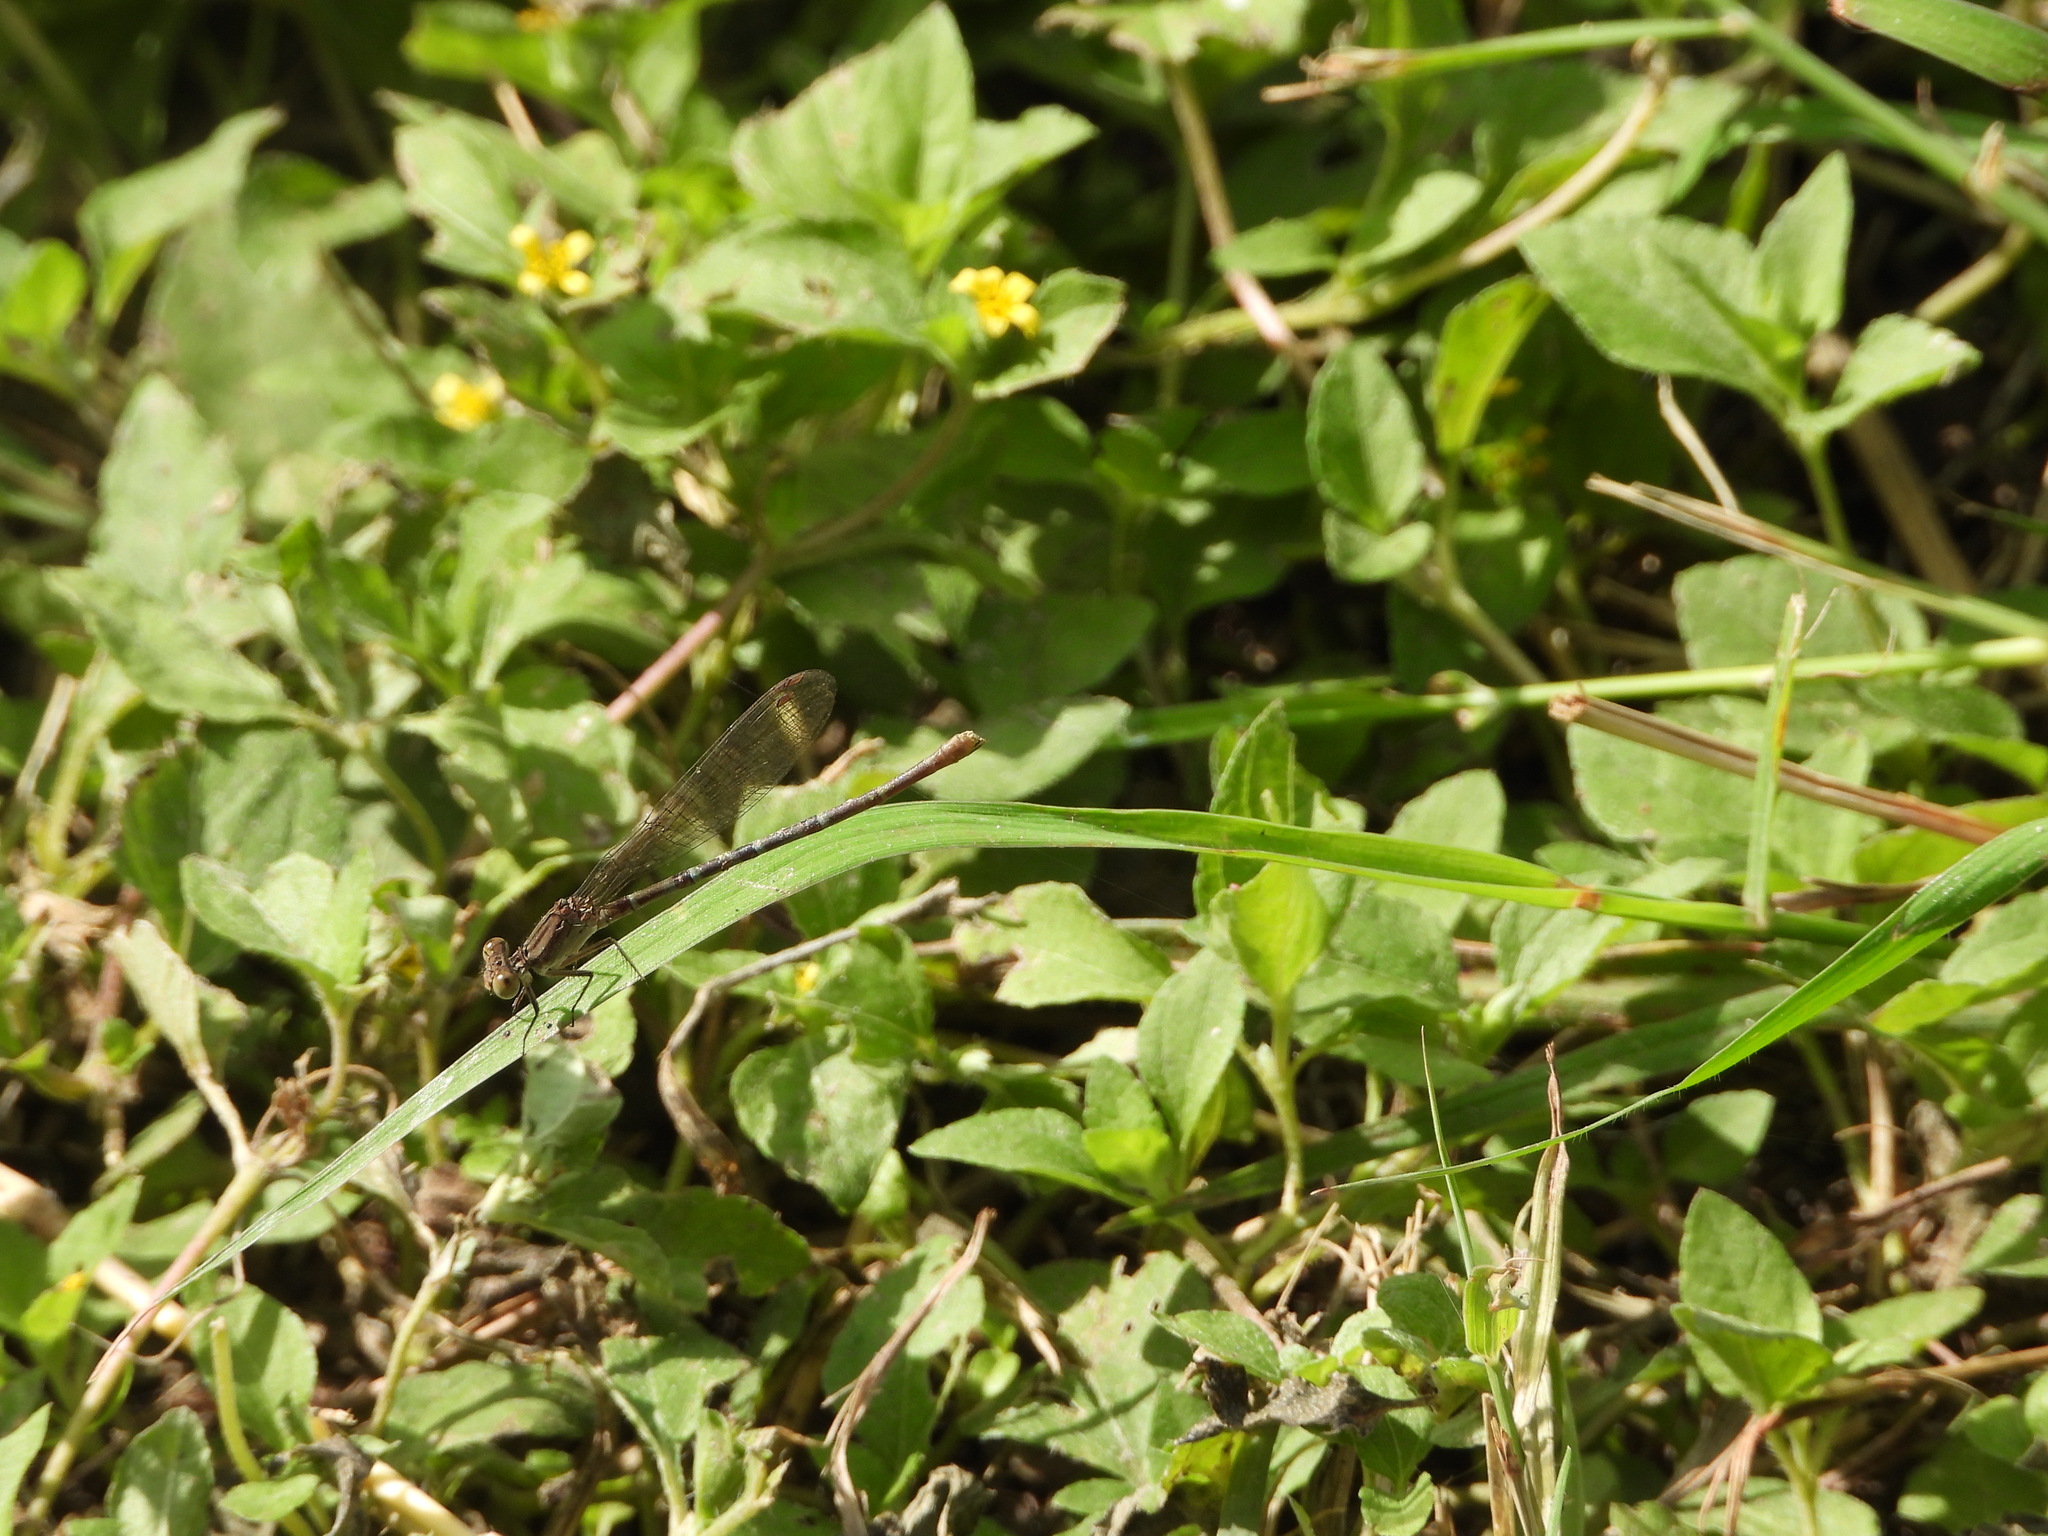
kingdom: Animalia
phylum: Arthropoda
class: Insecta
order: Odonata
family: Coenagrionidae
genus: Argia
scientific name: Argia sedula
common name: Blue-ringed dancer
